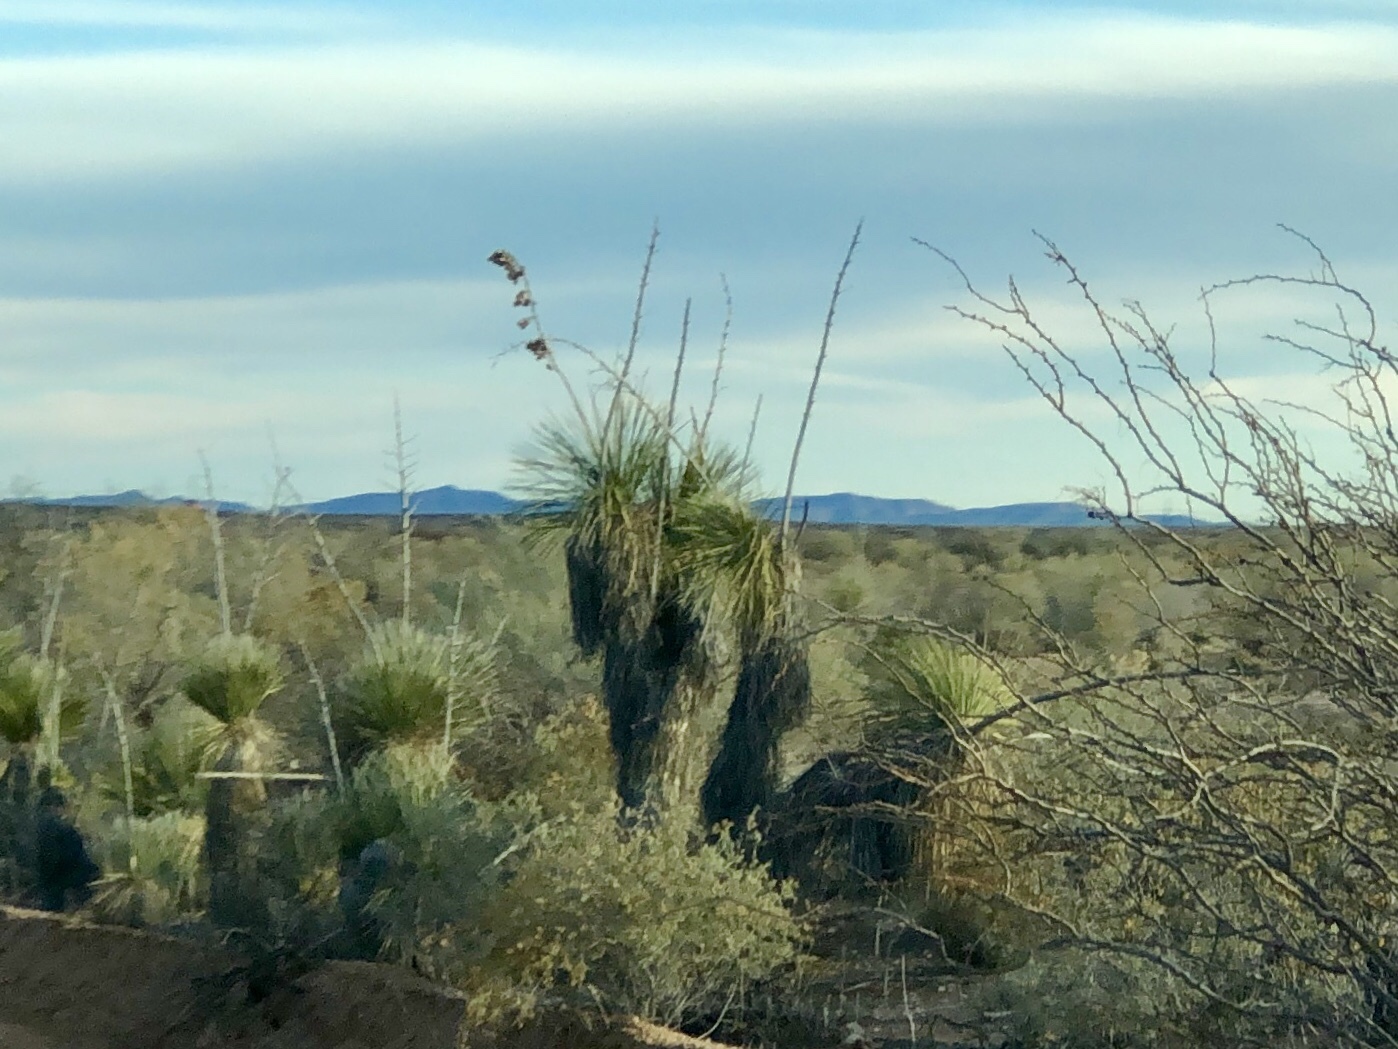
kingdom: Plantae
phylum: Tracheophyta
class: Liliopsida
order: Asparagales
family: Asparagaceae
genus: Yucca
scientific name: Yucca elata
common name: Palmella
